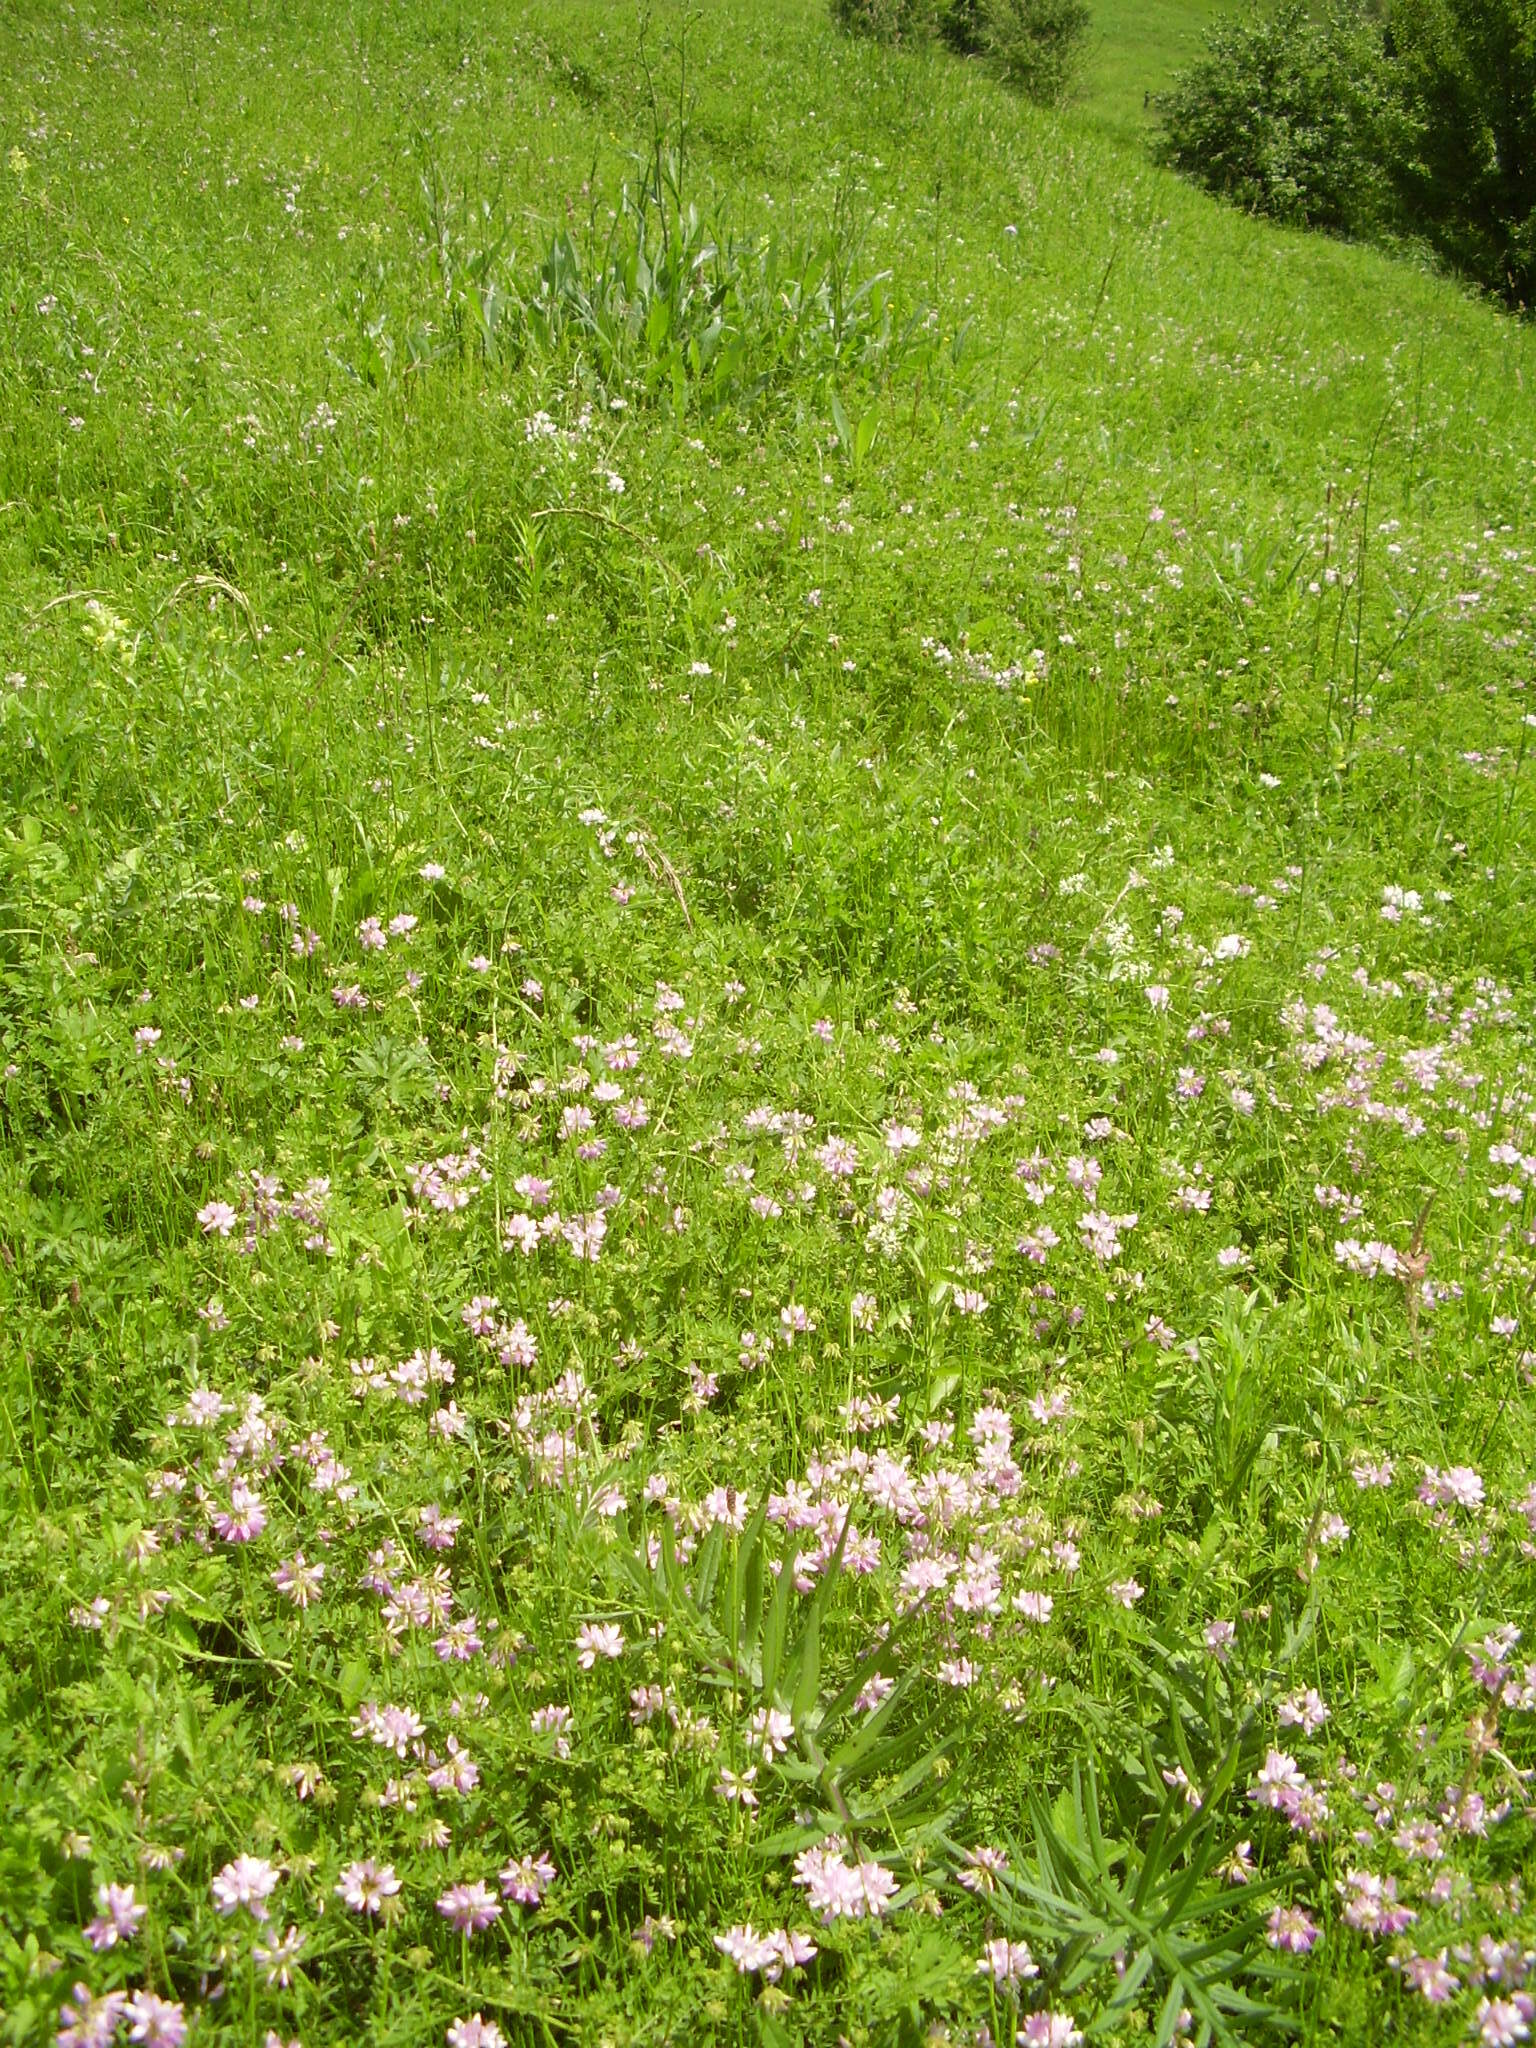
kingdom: Plantae
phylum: Tracheophyta
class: Magnoliopsida
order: Fabales
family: Fabaceae
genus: Coronilla
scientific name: Coronilla varia
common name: Crownvetch
